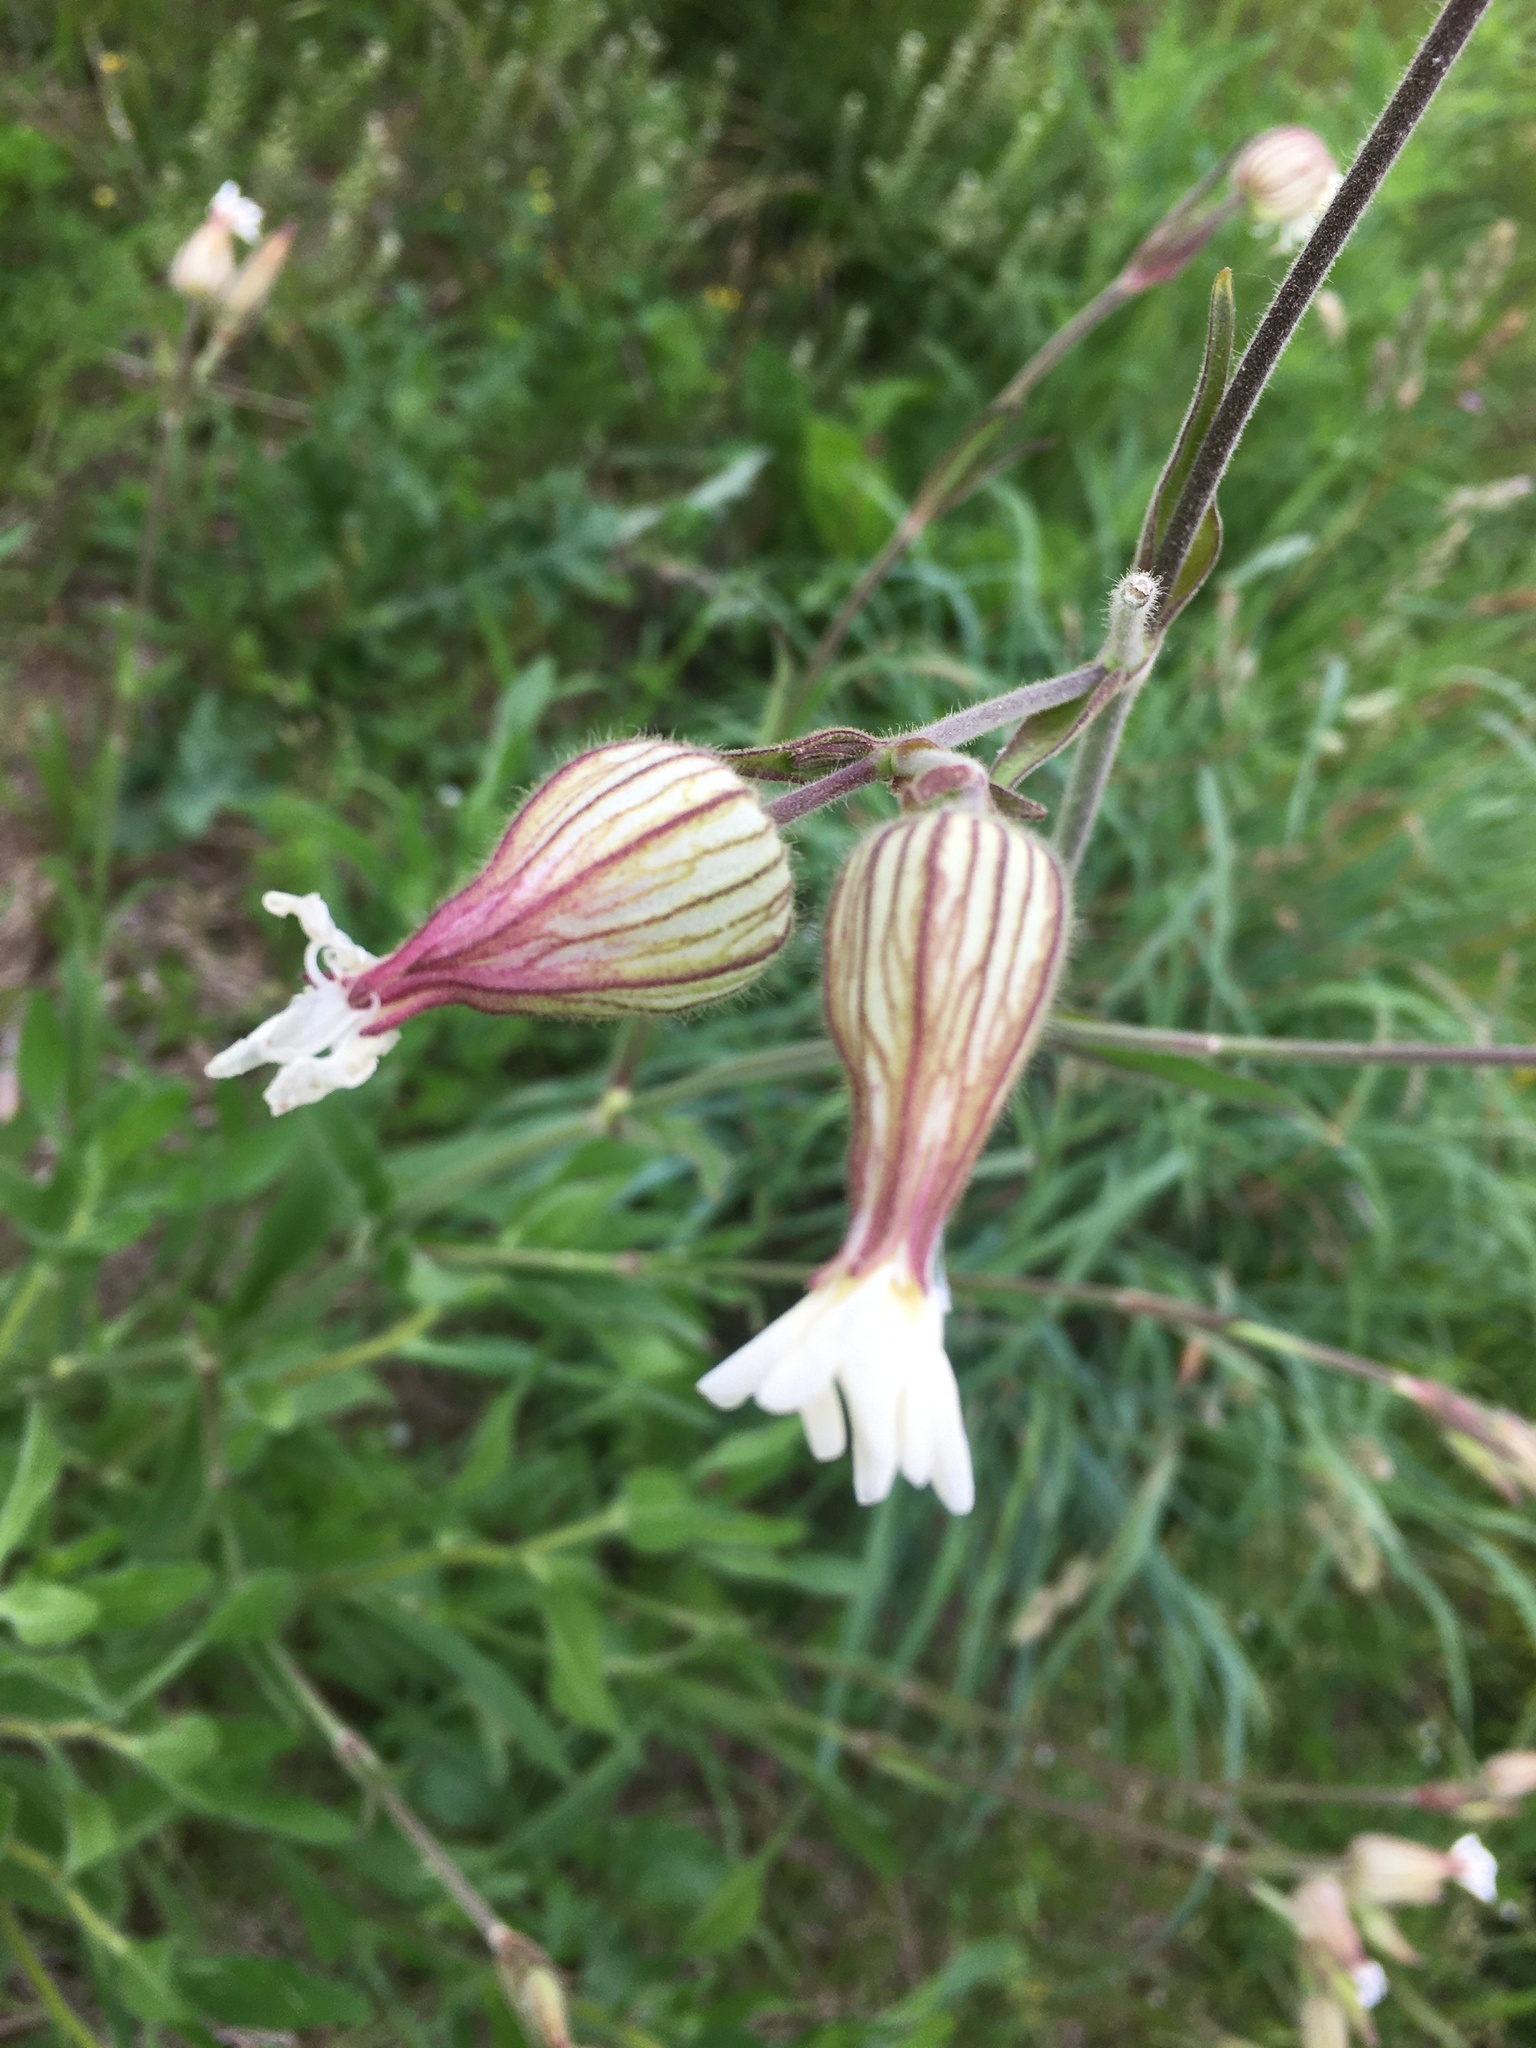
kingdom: Plantae
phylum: Tracheophyta
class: Magnoliopsida
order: Caryophyllales
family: Caryophyllaceae
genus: Silene
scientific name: Silene latifolia
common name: White campion
